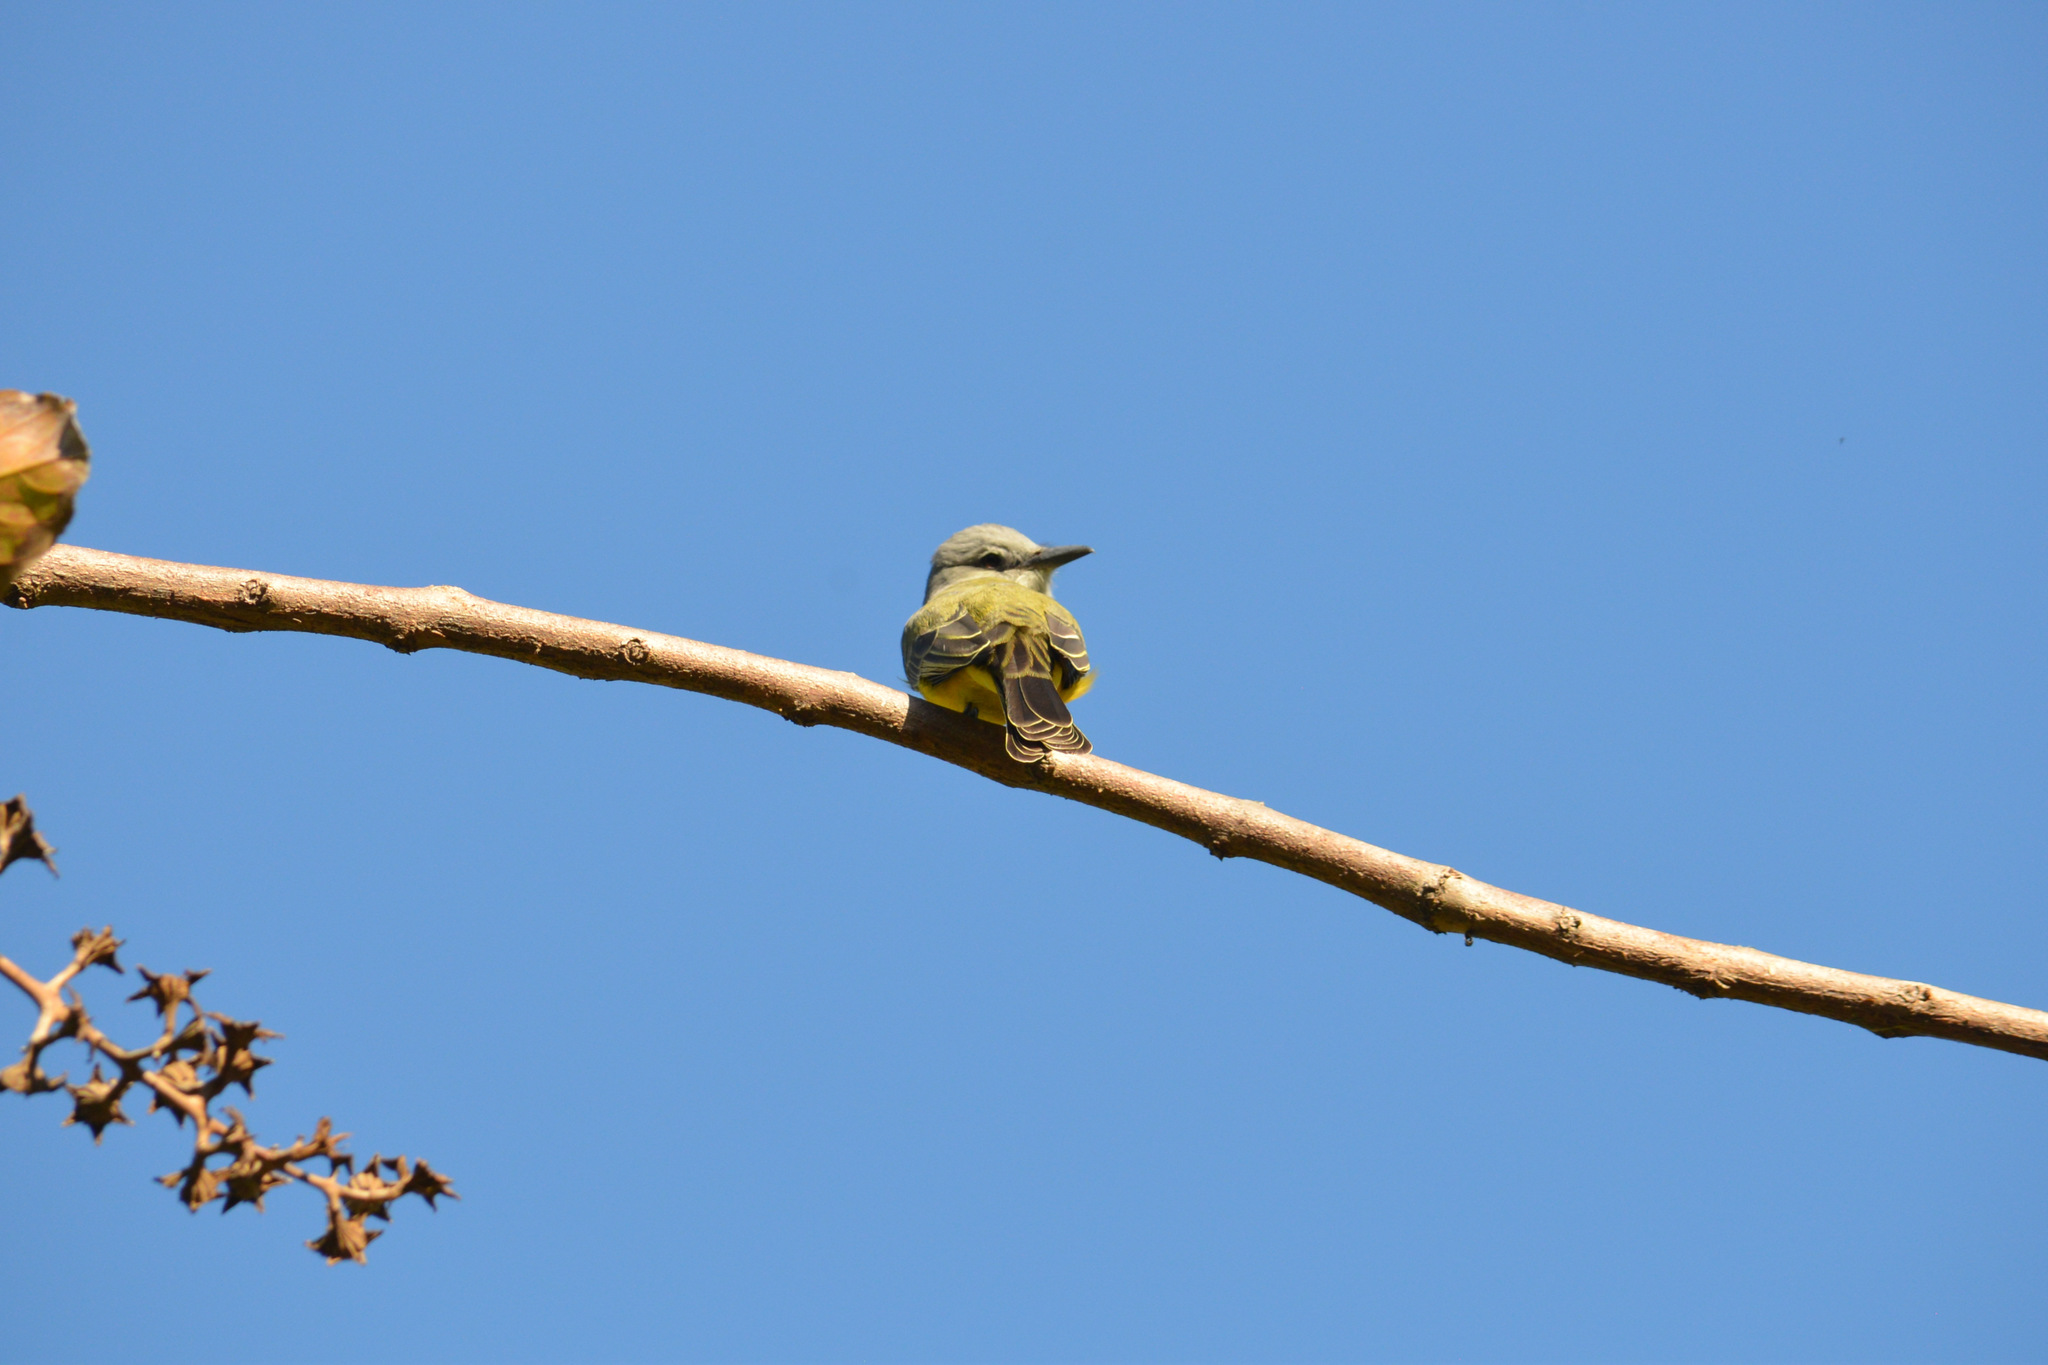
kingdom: Animalia
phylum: Chordata
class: Aves
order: Passeriformes
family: Tyrannidae
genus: Tyrannus
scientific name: Tyrannus melancholicus
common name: Tropical kingbird
